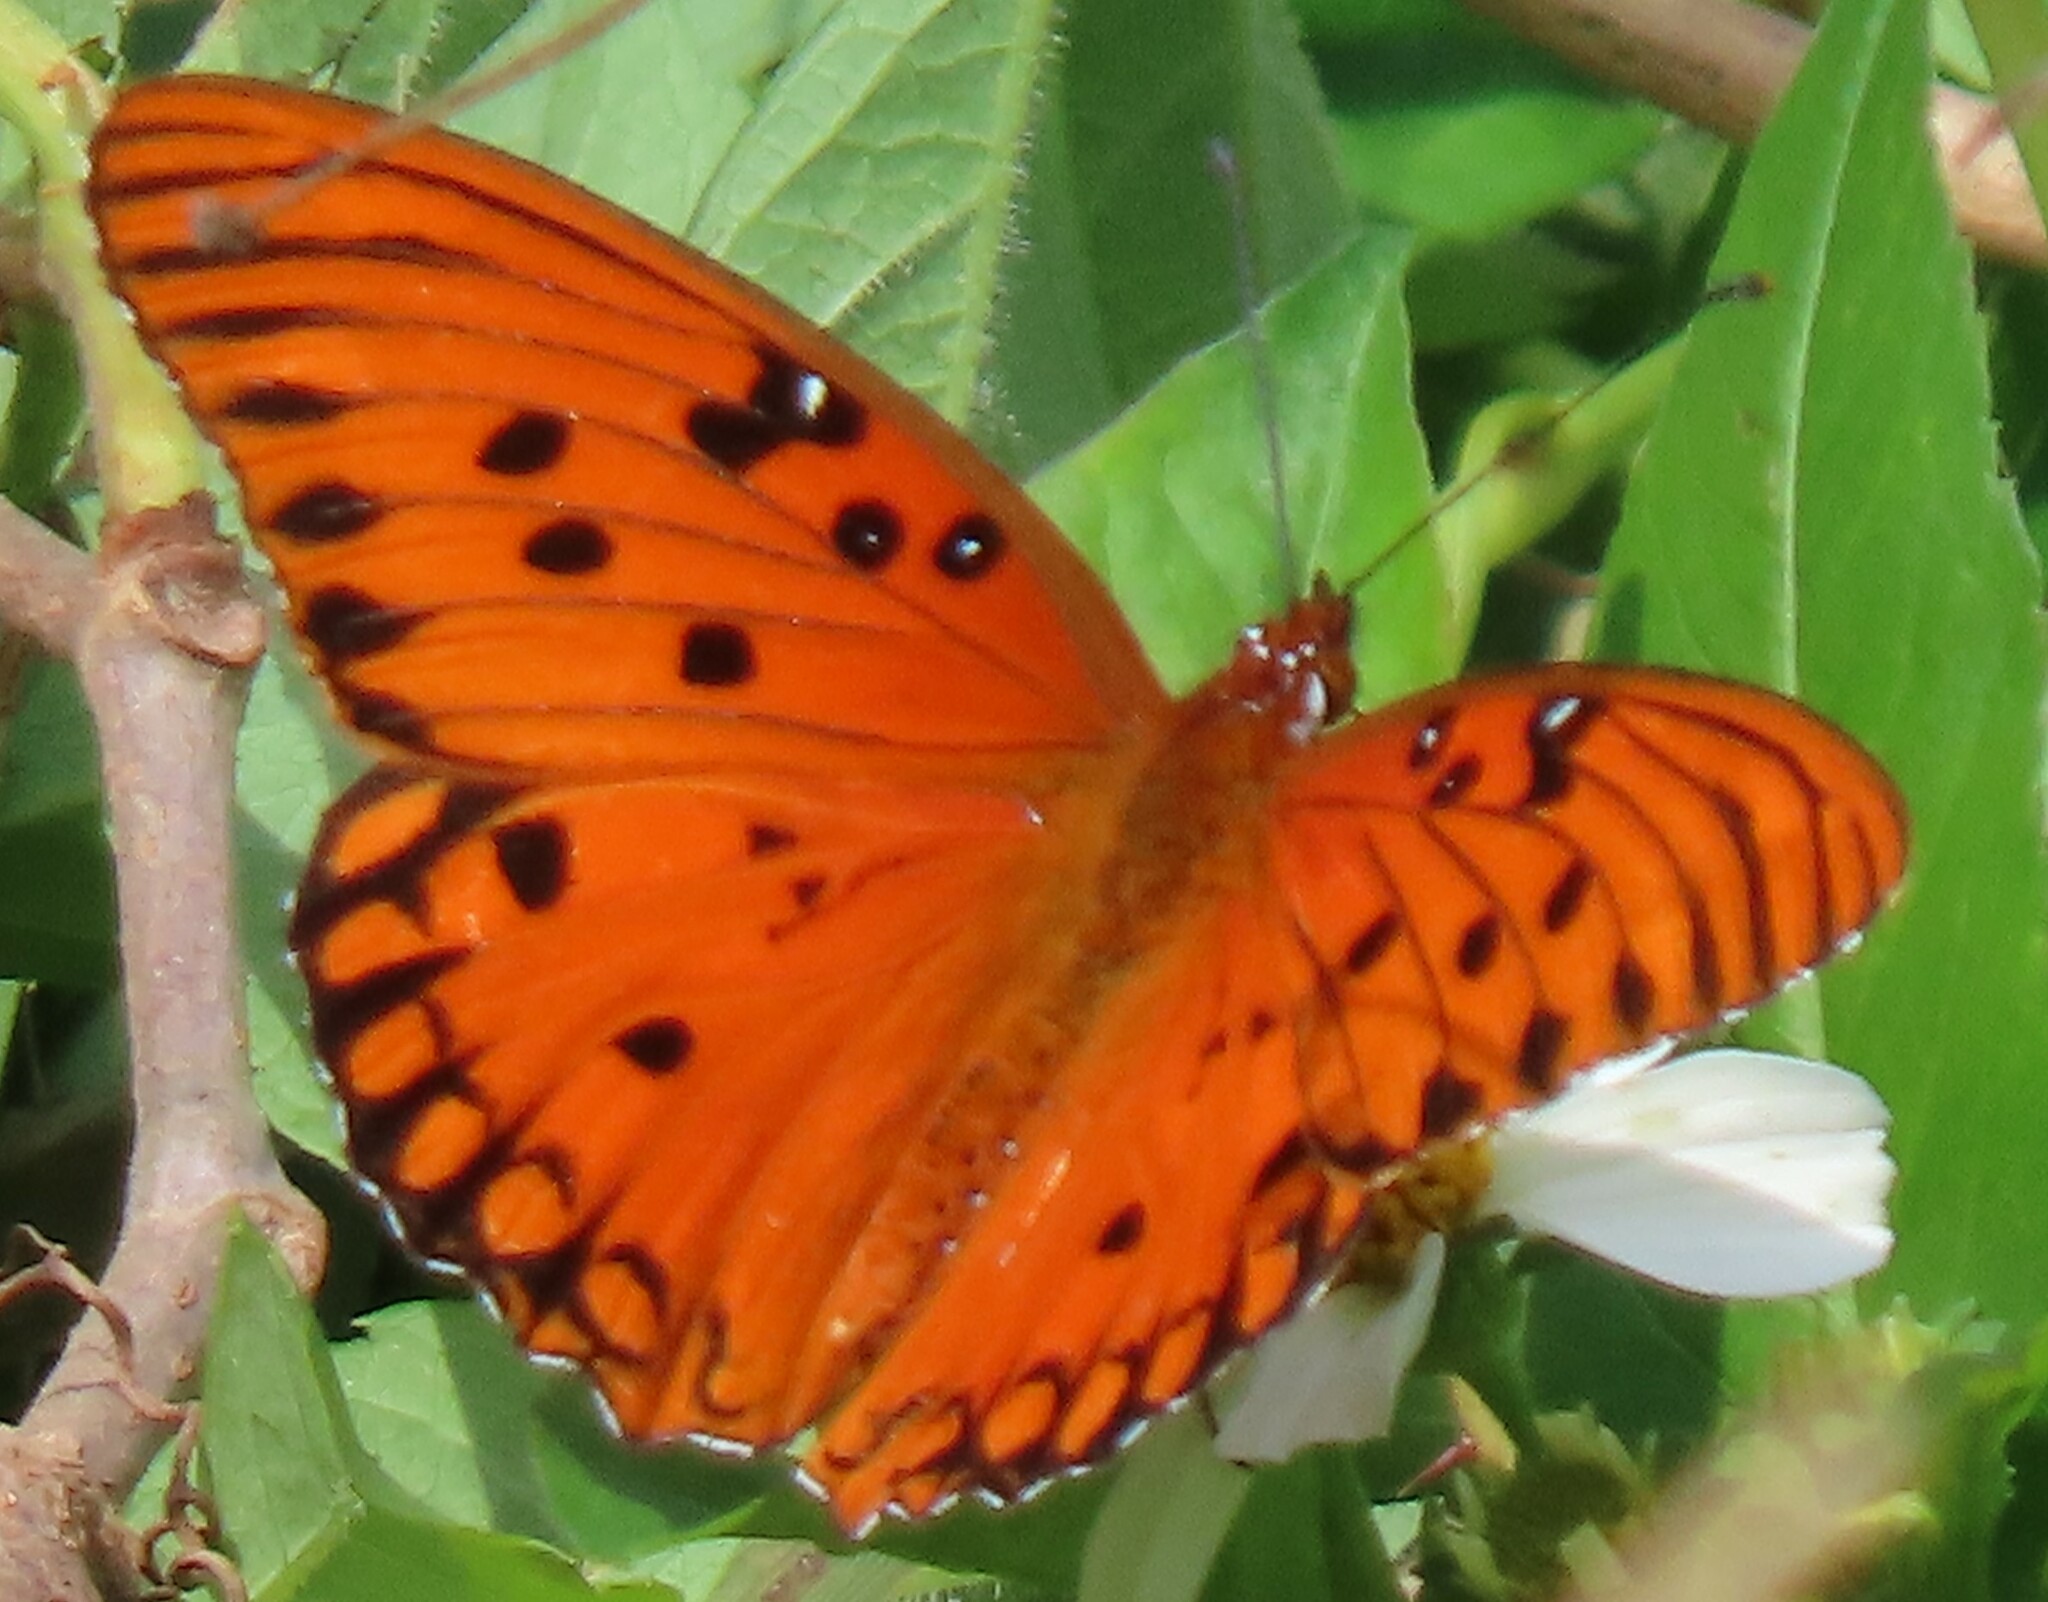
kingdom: Animalia
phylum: Arthropoda
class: Insecta
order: Lepidoptera
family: Nymphalidae
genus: Dione
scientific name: Dione vanillae
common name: Gulf fritillary
